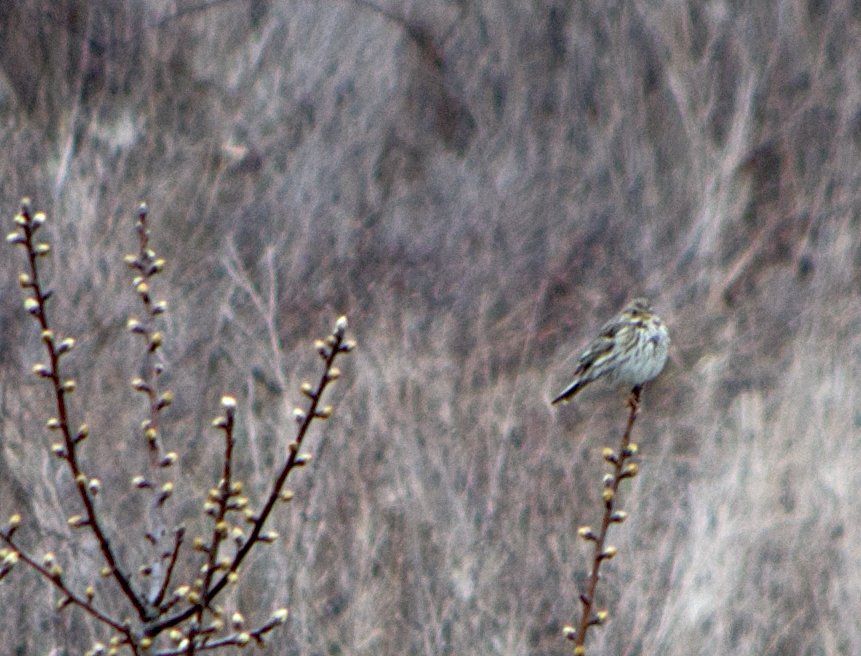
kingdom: Animalia
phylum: Chordata
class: Aves
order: Passeriformes
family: Emberizidae
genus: Emberiza
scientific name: Emberiza calandra
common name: Corn bunting
